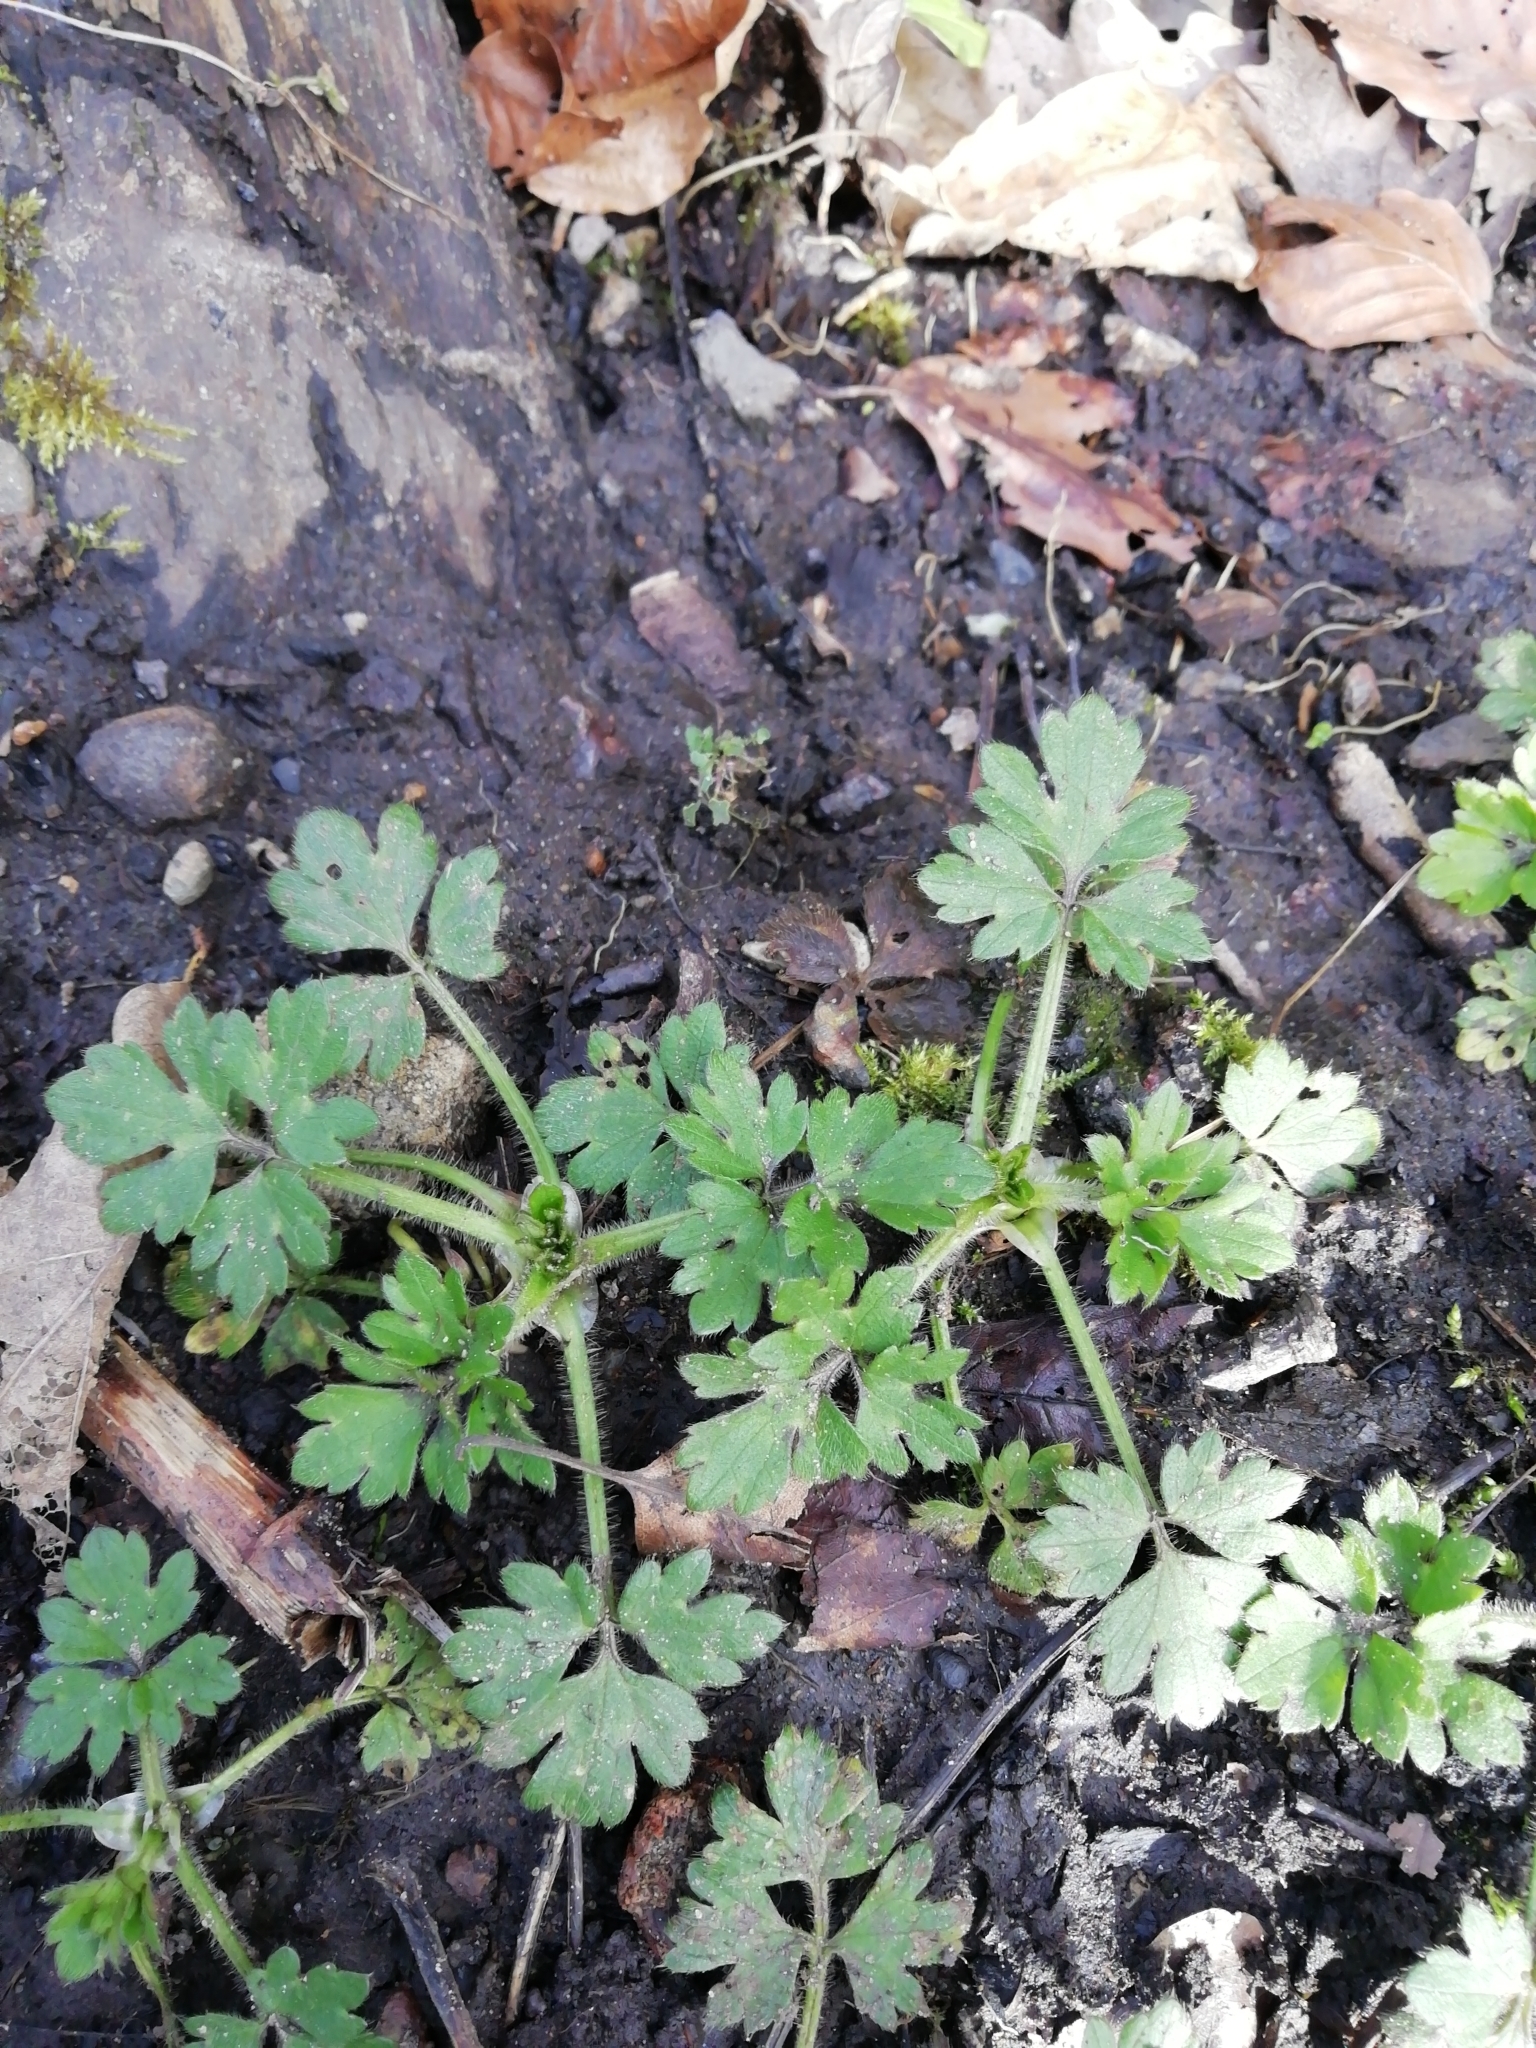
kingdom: Plantae
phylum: Tracheophyta
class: Magnoliopsida
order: Ranunculales
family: Ranunculaceae
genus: Ranunculus
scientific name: Ranunculus repens
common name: Creeping buttercup
